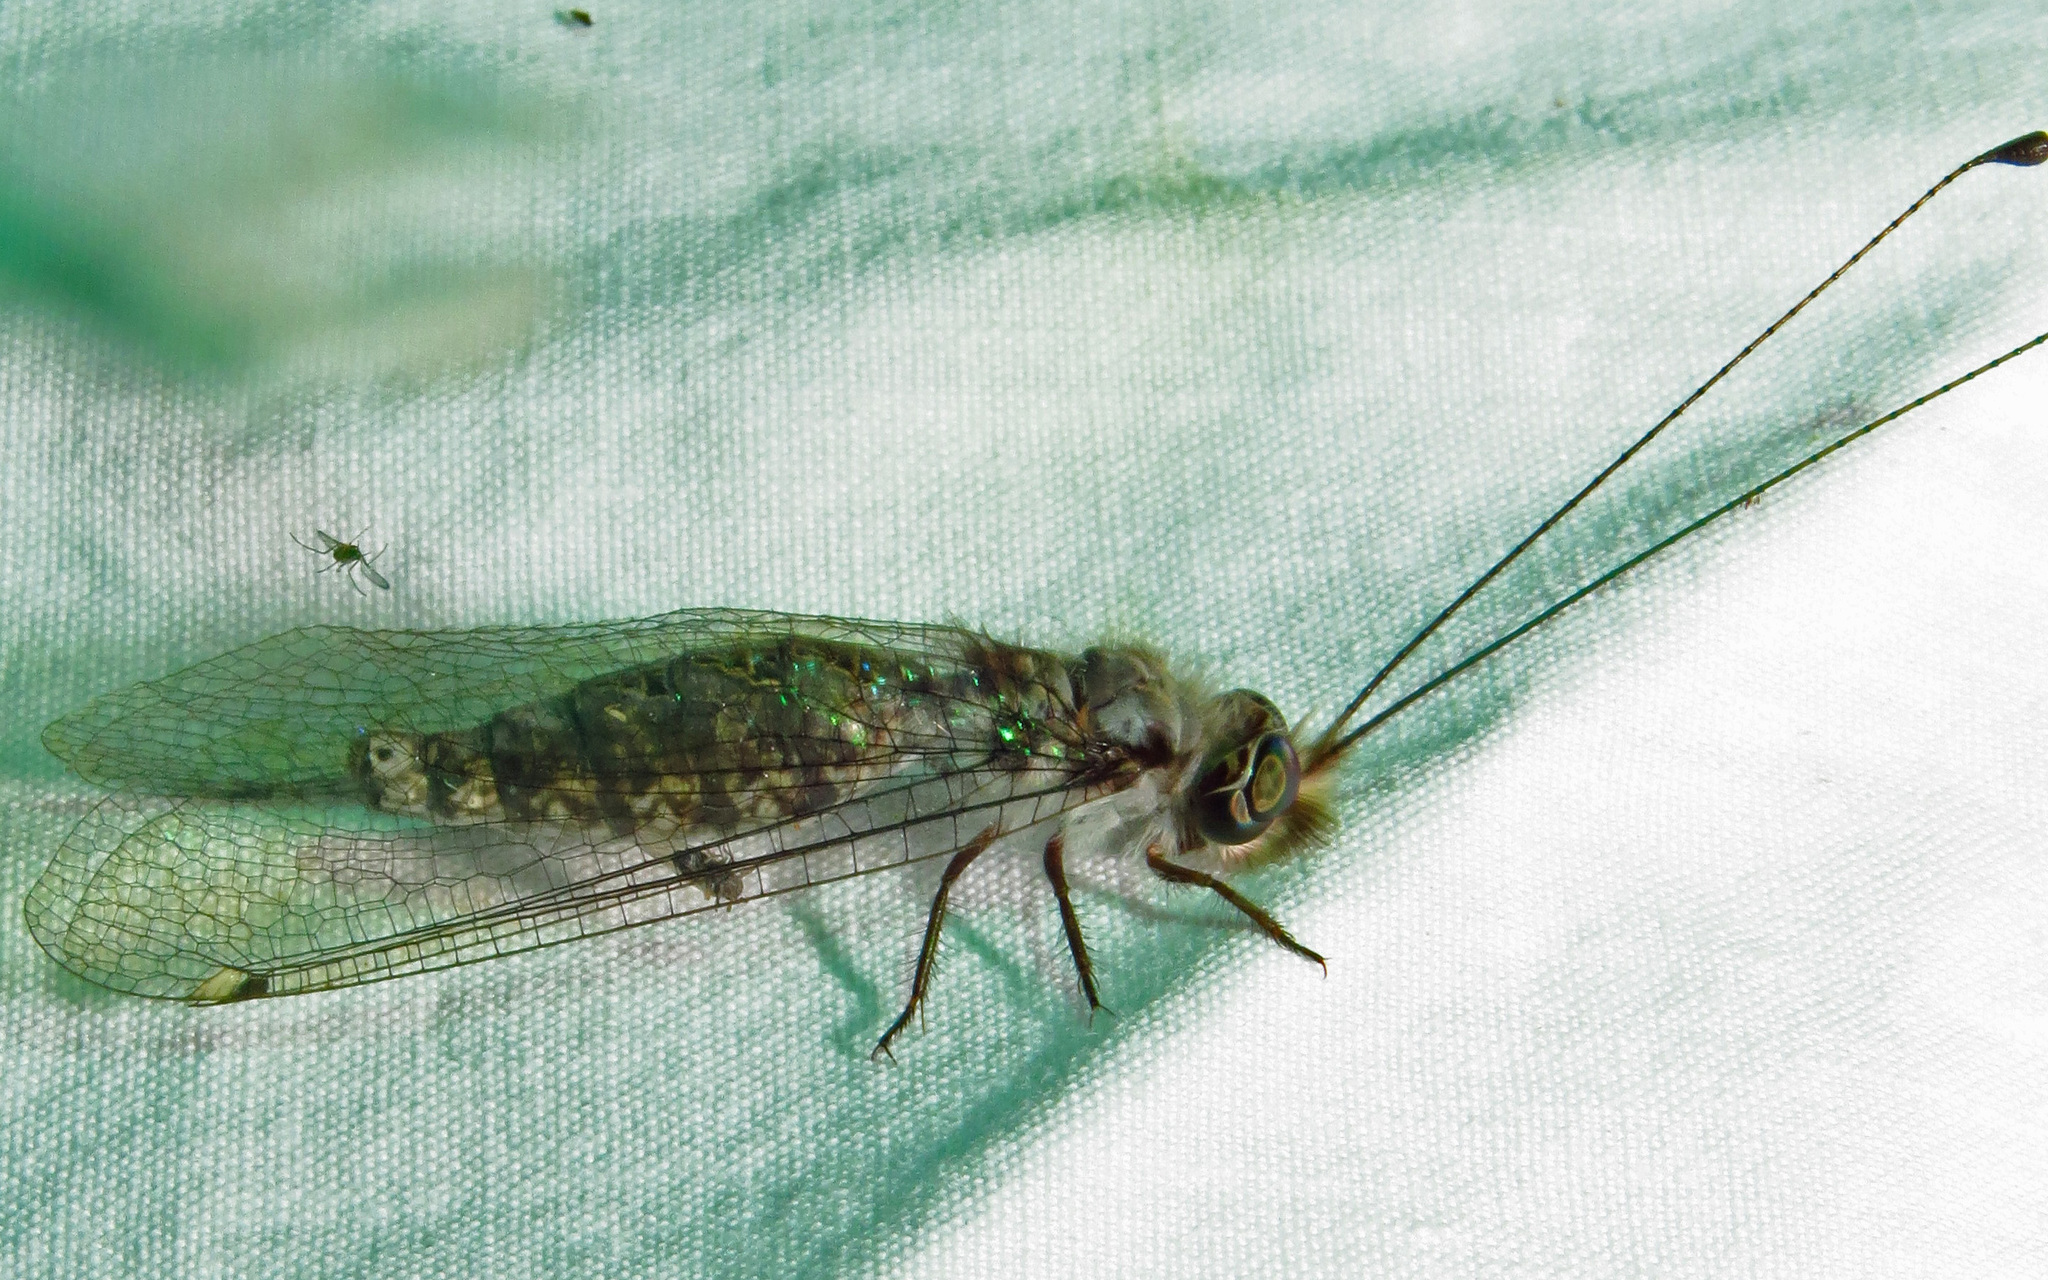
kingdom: Animalia
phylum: Arthropoda
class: Insecta
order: Neuroptera
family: Ascalaphidae
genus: Ululodes
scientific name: Ululodes floridanus
